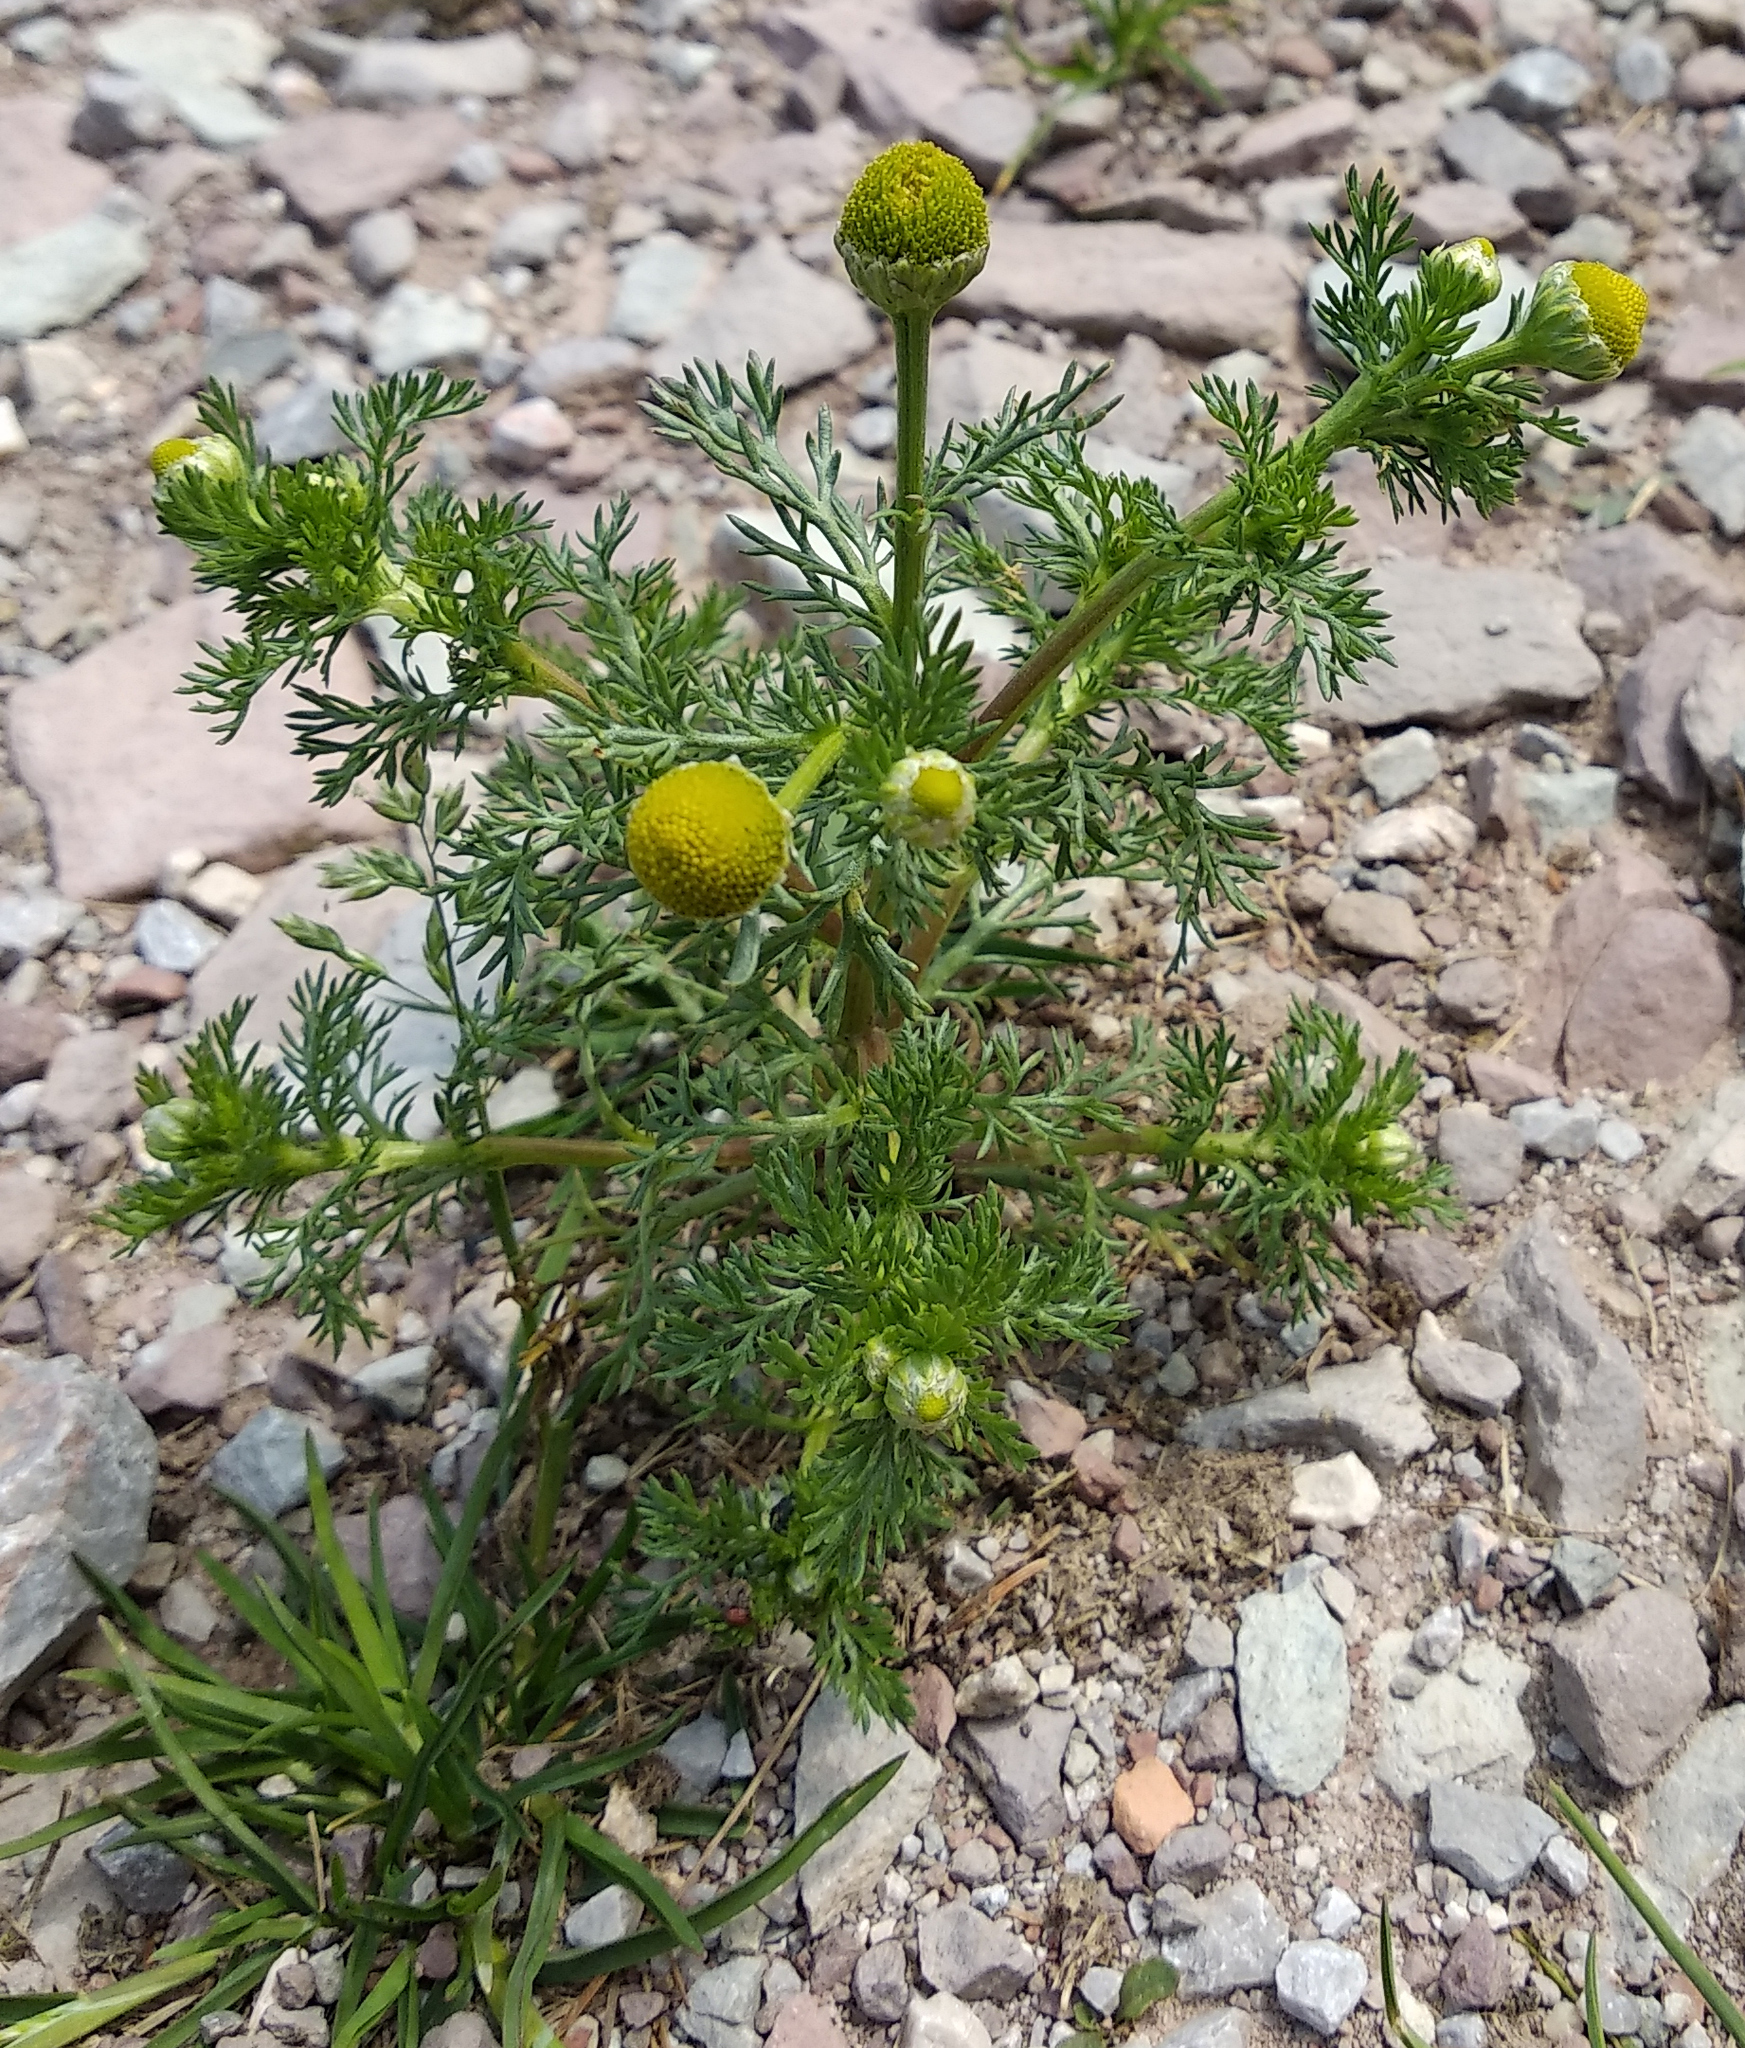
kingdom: Plantae
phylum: Tracheophyta
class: Magnoliopsida
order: Asterales
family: Asteraceae
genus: Matricaria
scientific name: Matricaria discoidea
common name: Disc mayweed
